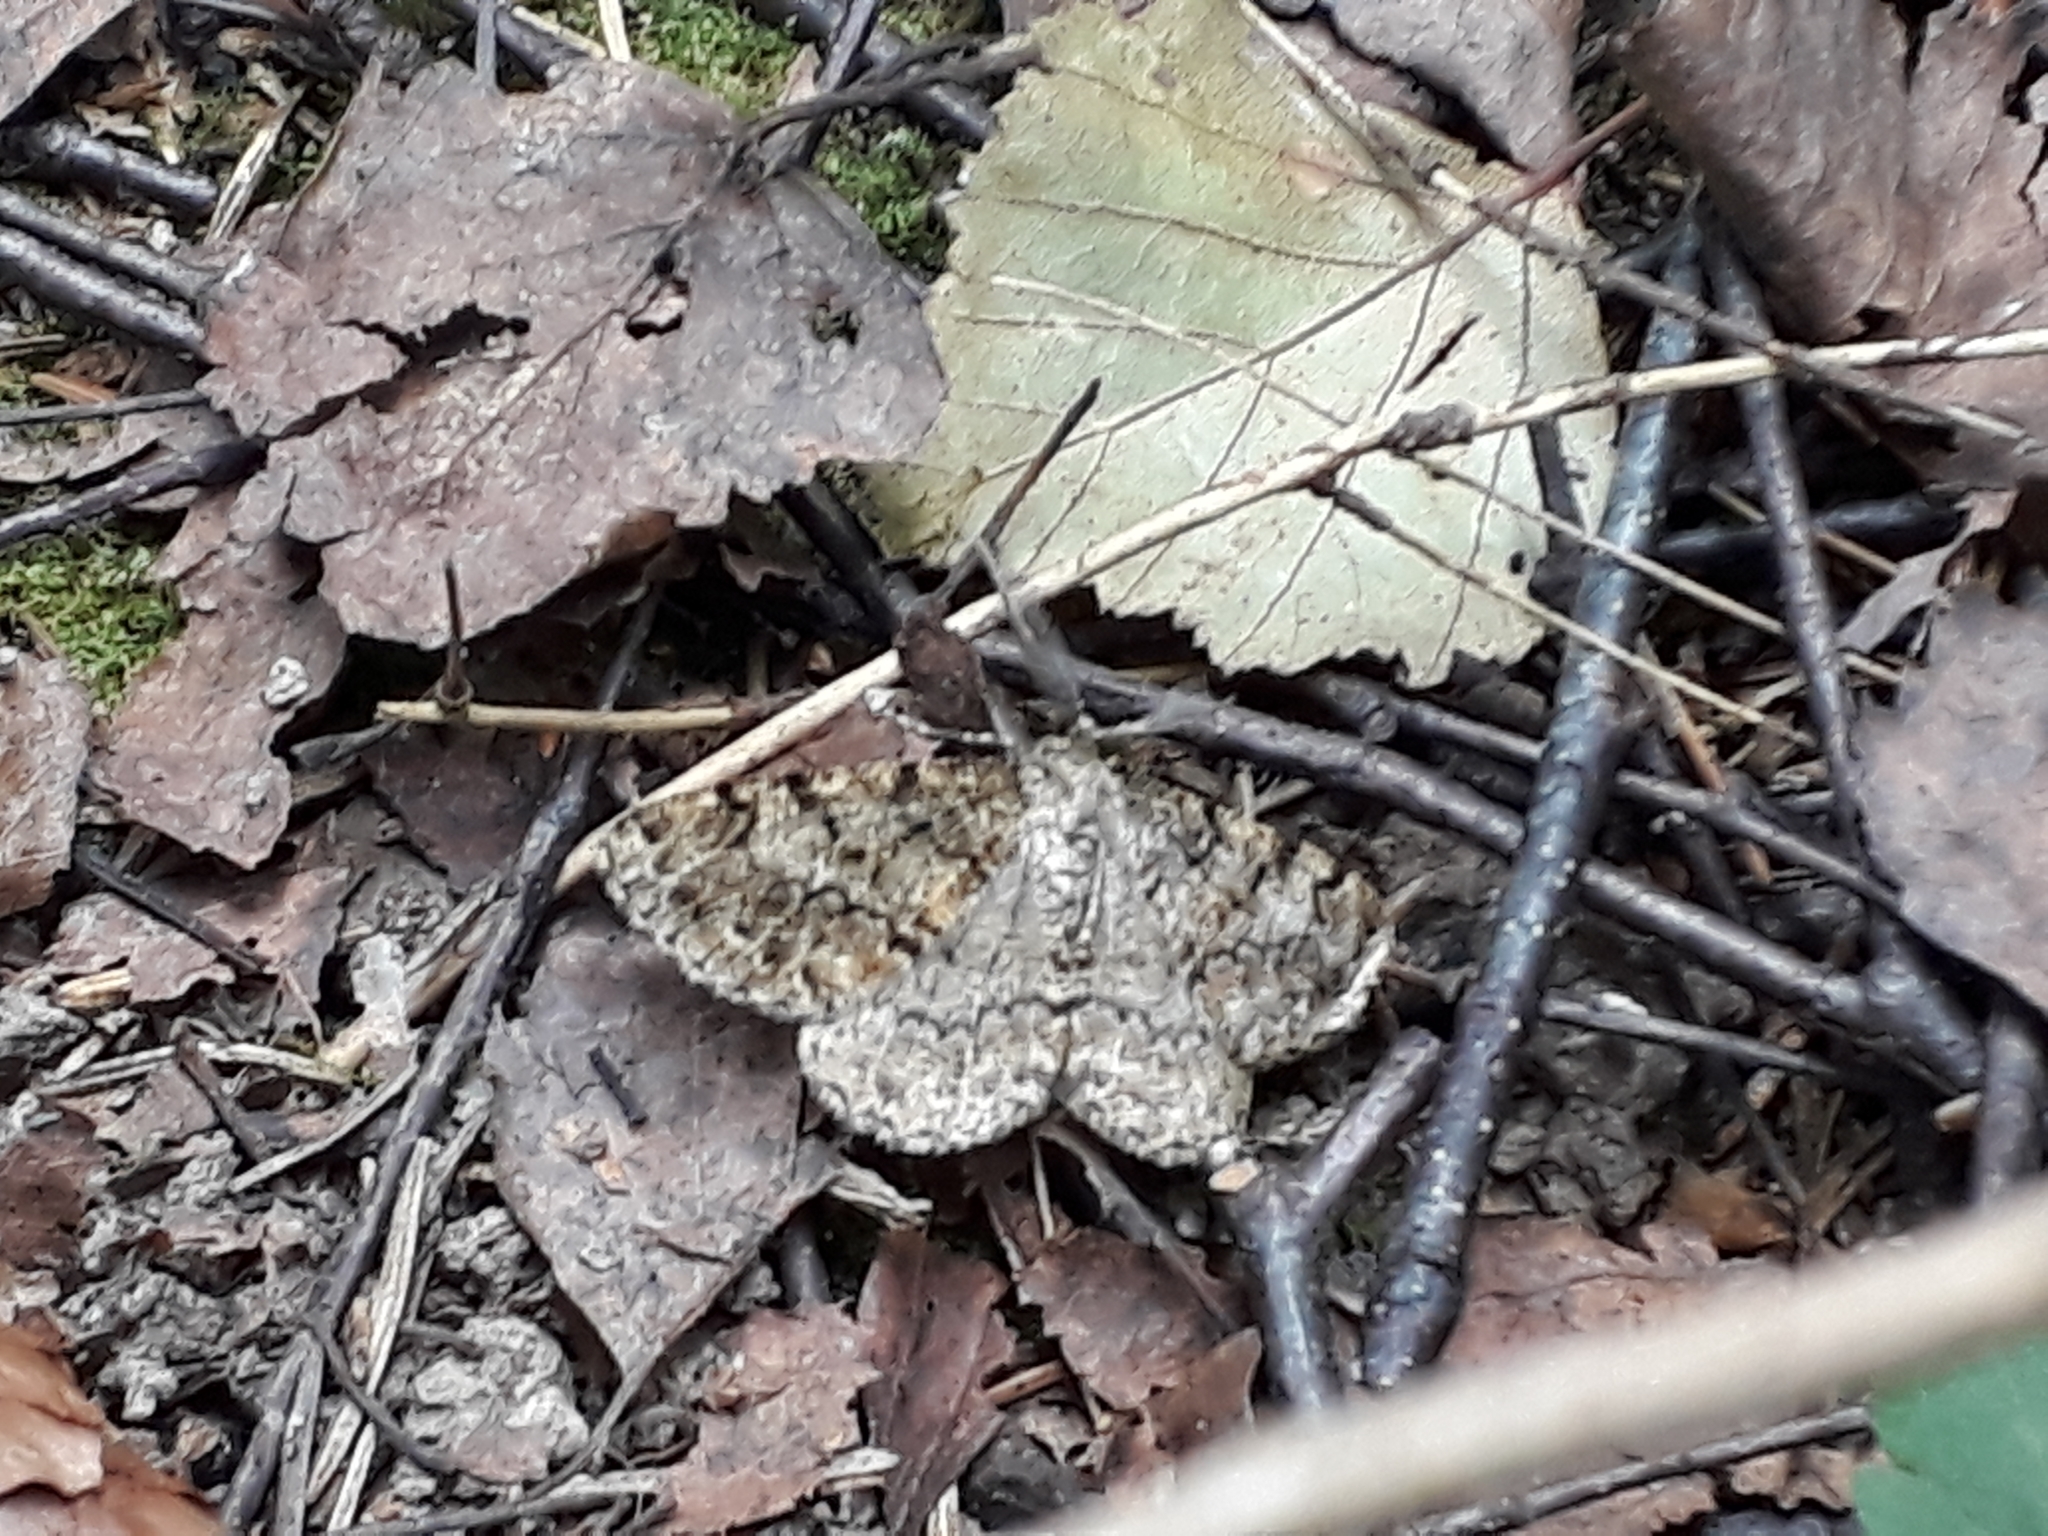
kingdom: Animalia
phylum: Arthropoda
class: Insecta
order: Lepidoptera
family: Geometridae
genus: Deileptenia
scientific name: Deileptenia ribeata
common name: Satin beauty
